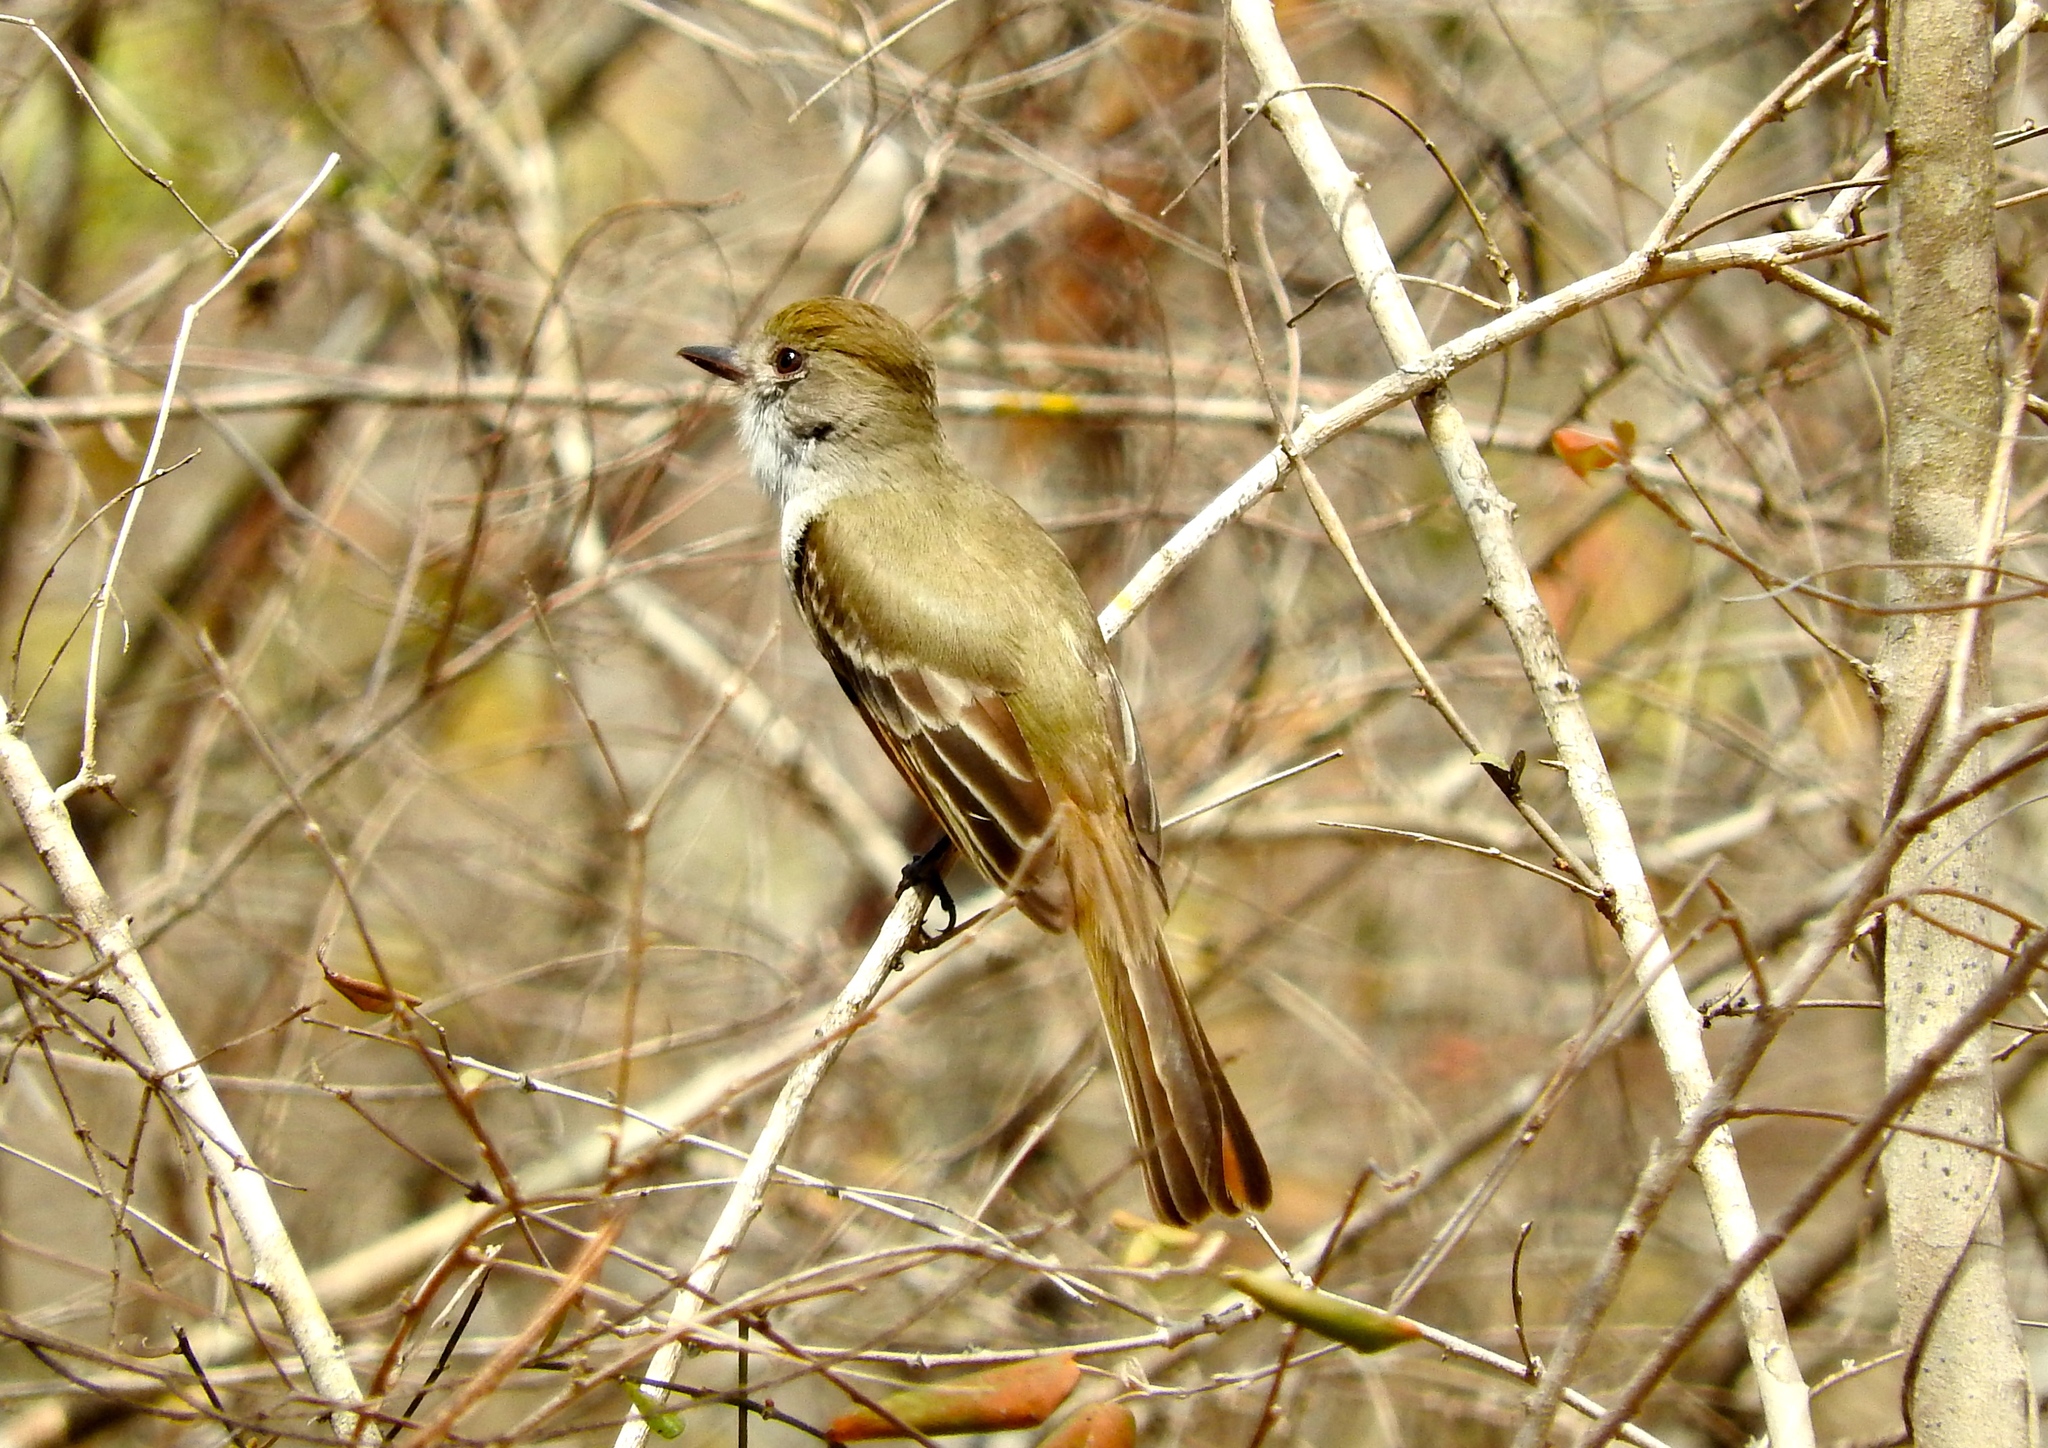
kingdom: Animalia
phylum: Chordata
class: Aves
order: Passeriformes
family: Tyrannidae
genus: Myiarchus
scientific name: Myiarchus
